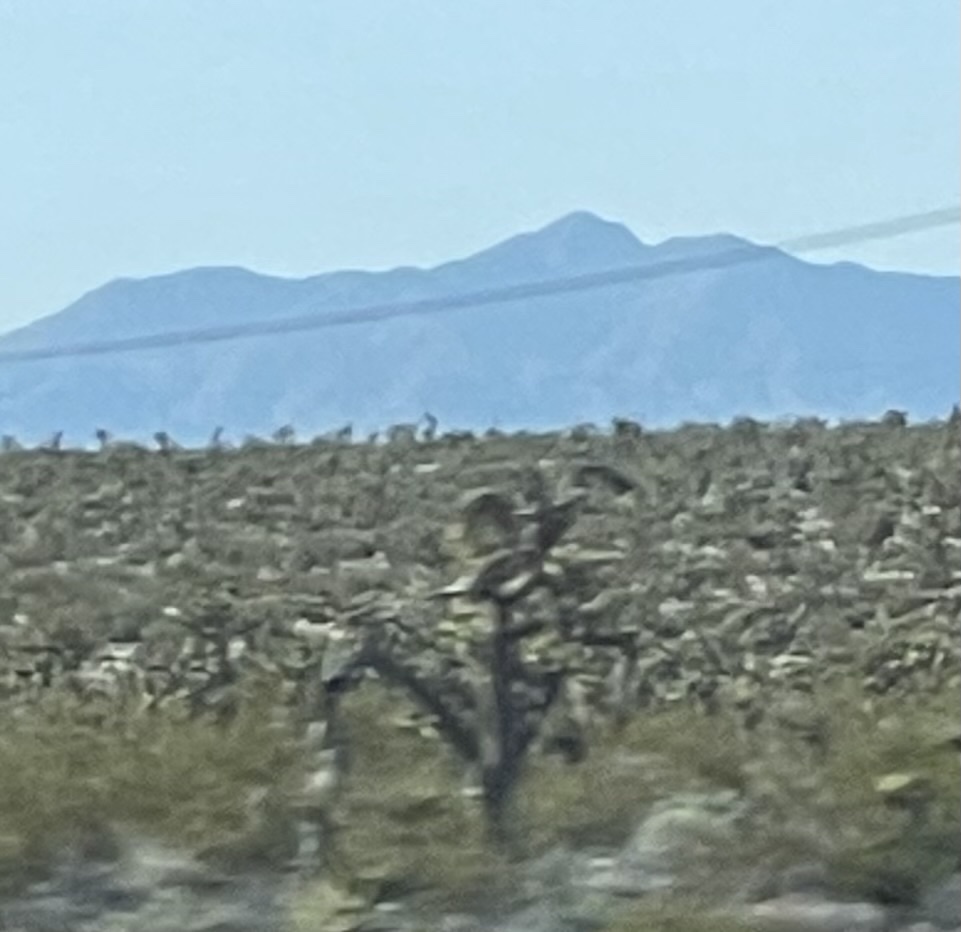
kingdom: Plantae
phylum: Tracheophyta
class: Liliopsida
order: Asparagales
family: Asparagaceae
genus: Yucca
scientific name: Yucca brevifolia
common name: Joshua tree
